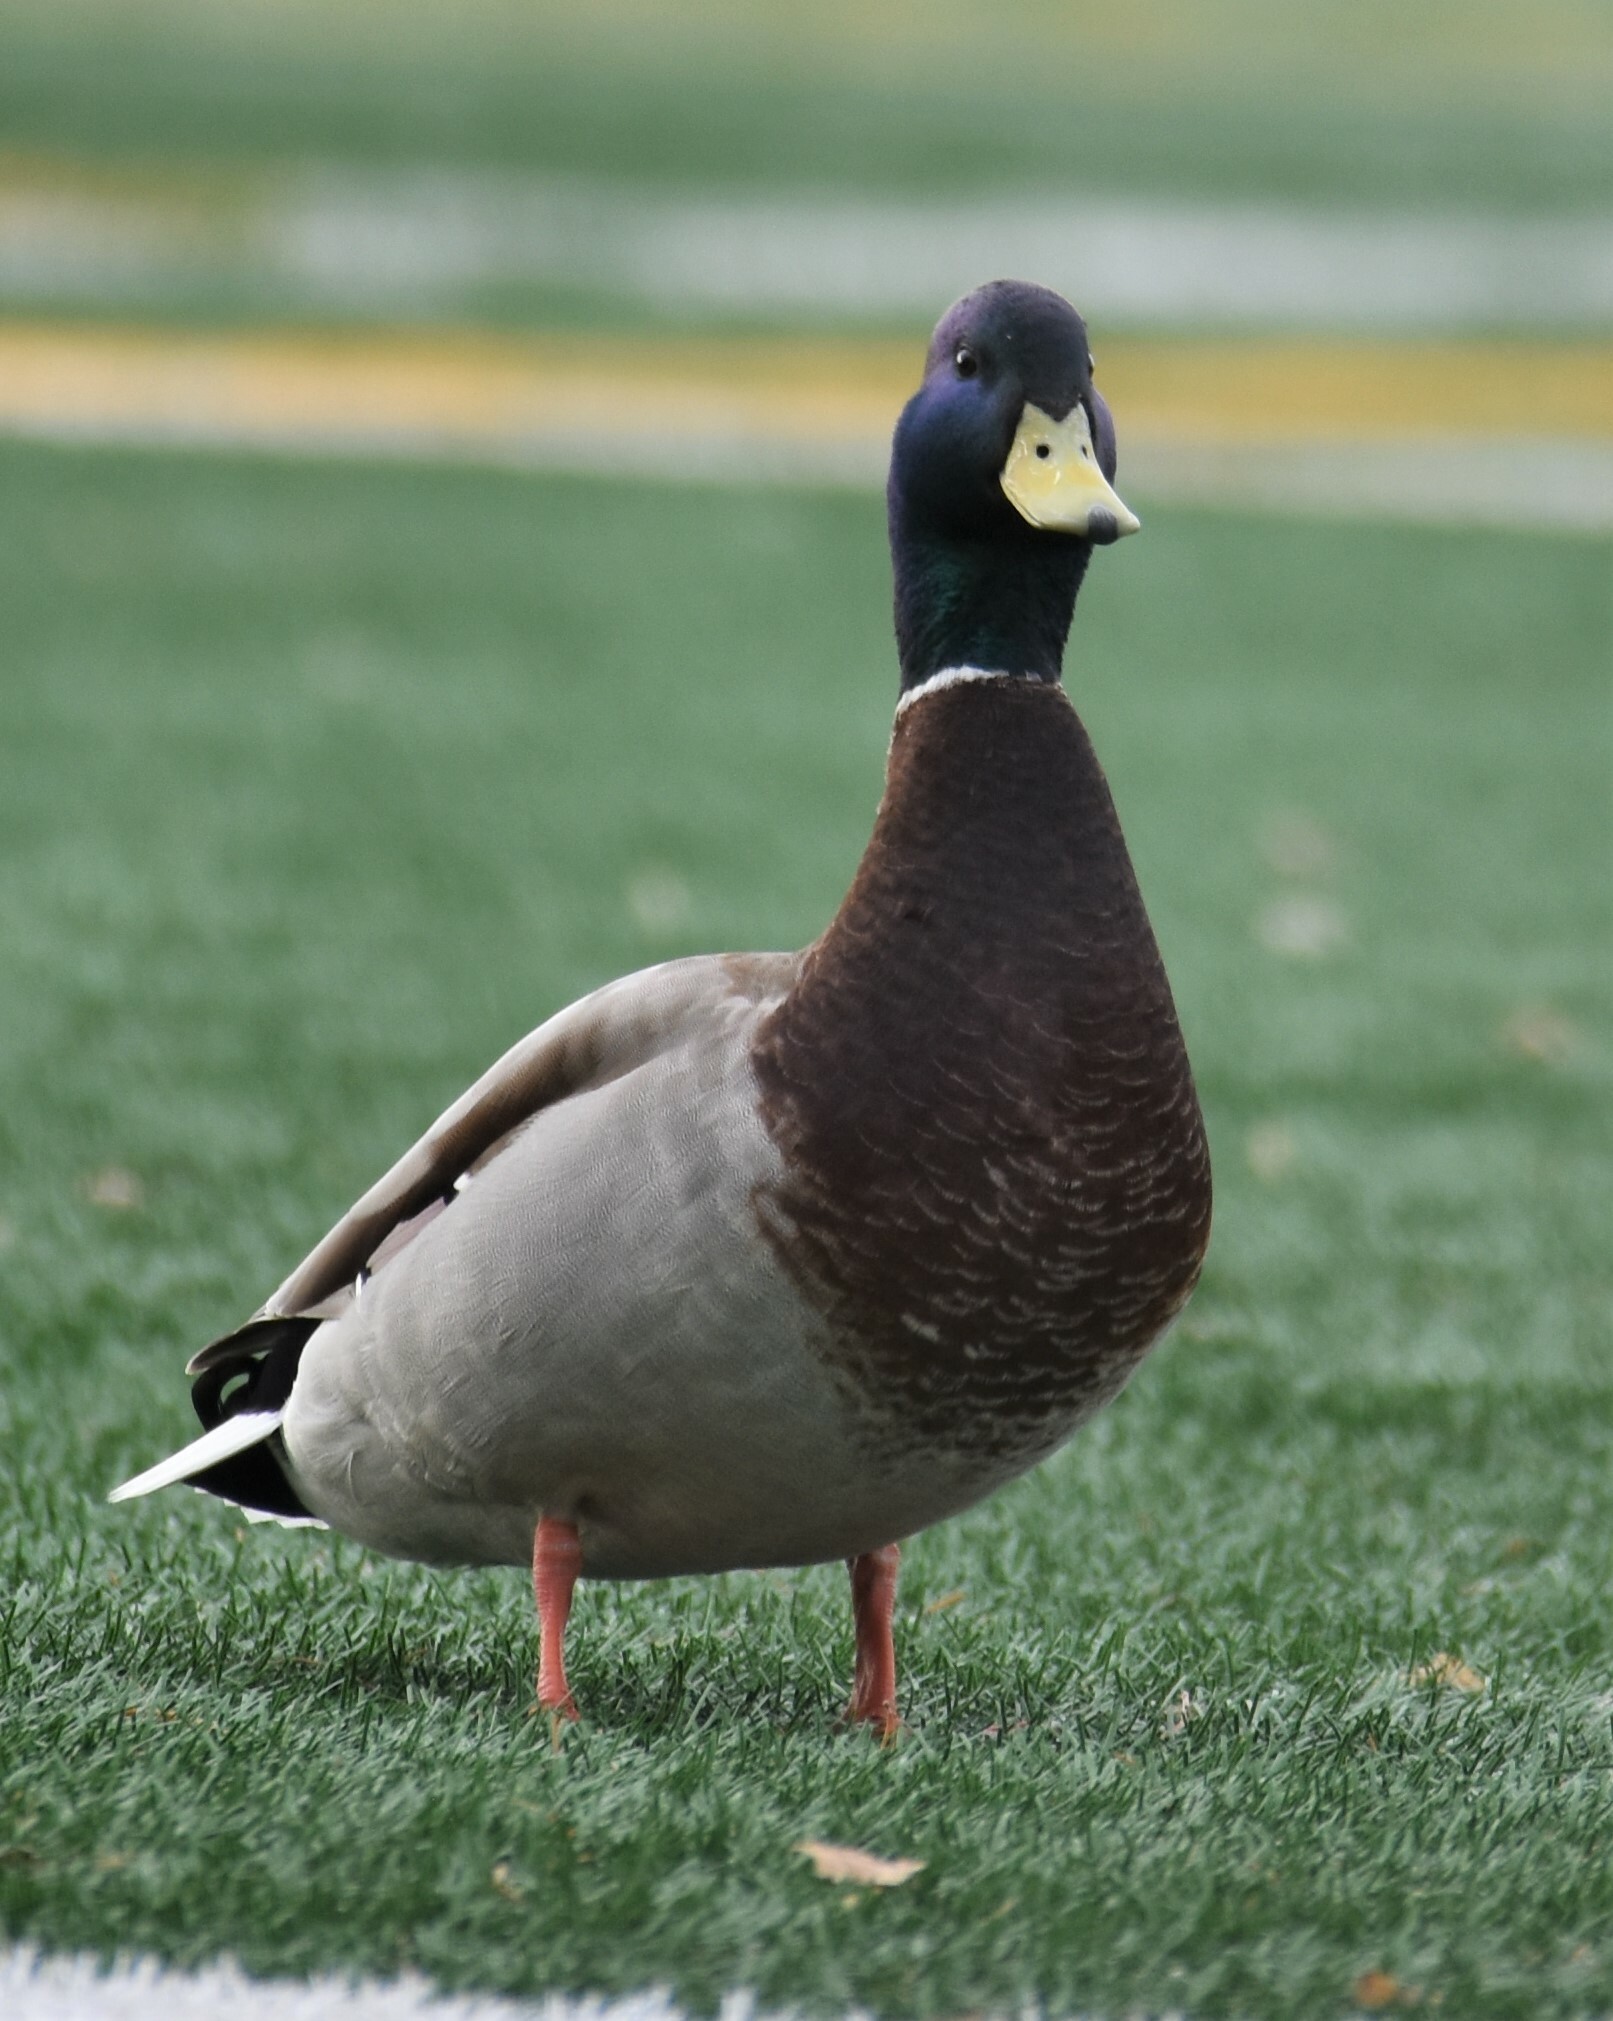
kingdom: Animalia
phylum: Chordata
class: Aves
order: Anseriformes
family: Anatidae
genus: Anas
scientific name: Anas platyrhynchos
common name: Mallard
